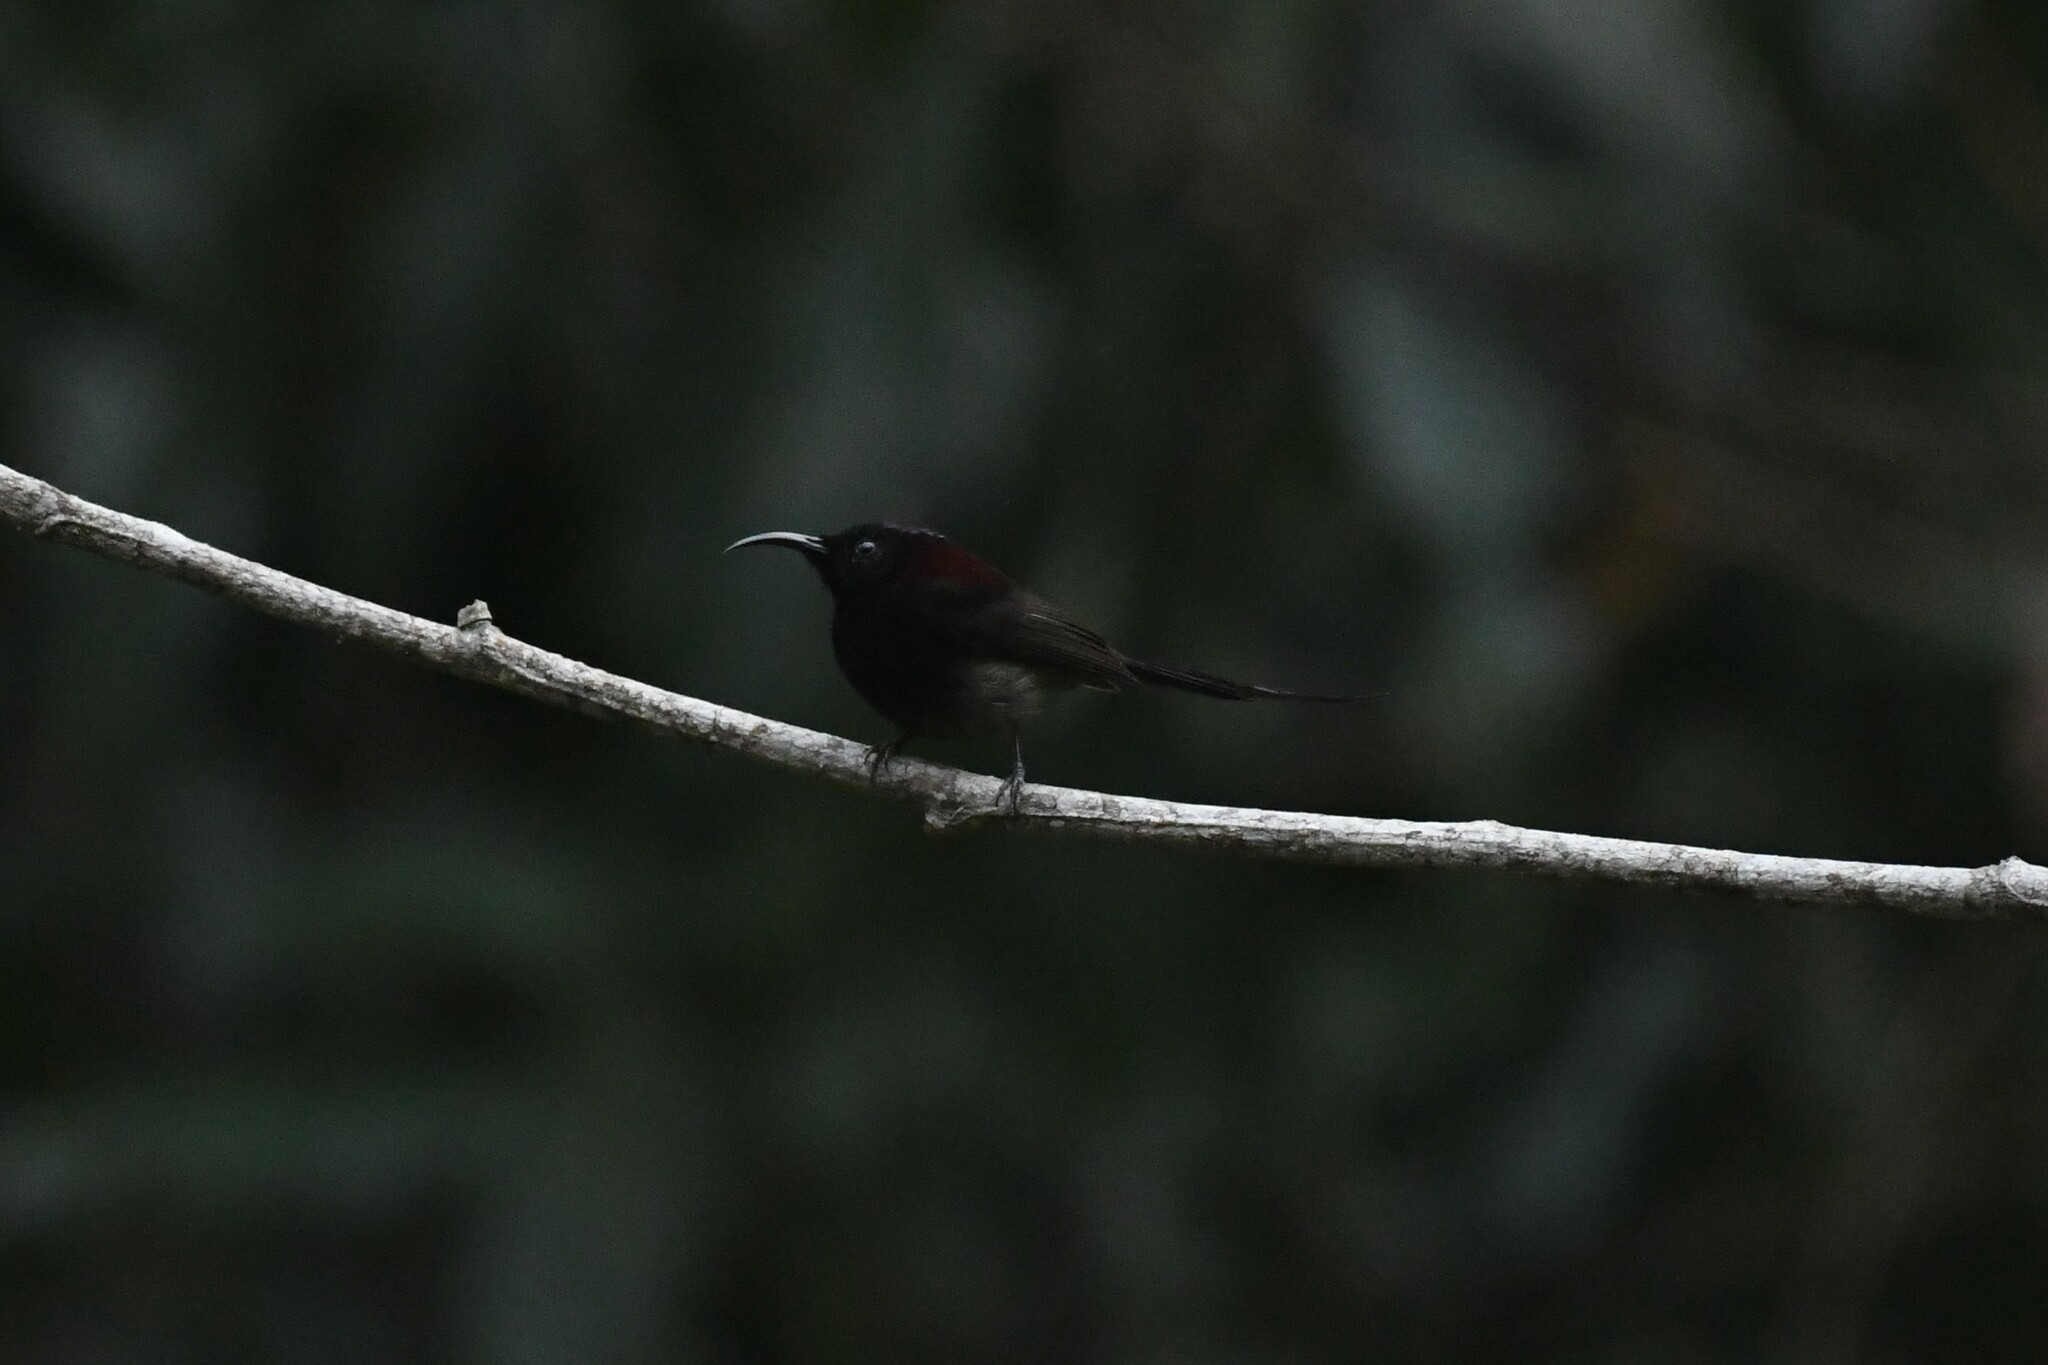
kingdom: Animalia
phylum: Chordata
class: Aves
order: Passeriformes
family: Nectariniidae
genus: Aethopyga
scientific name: Aethopyga saturata
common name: Black-throated sunbird
